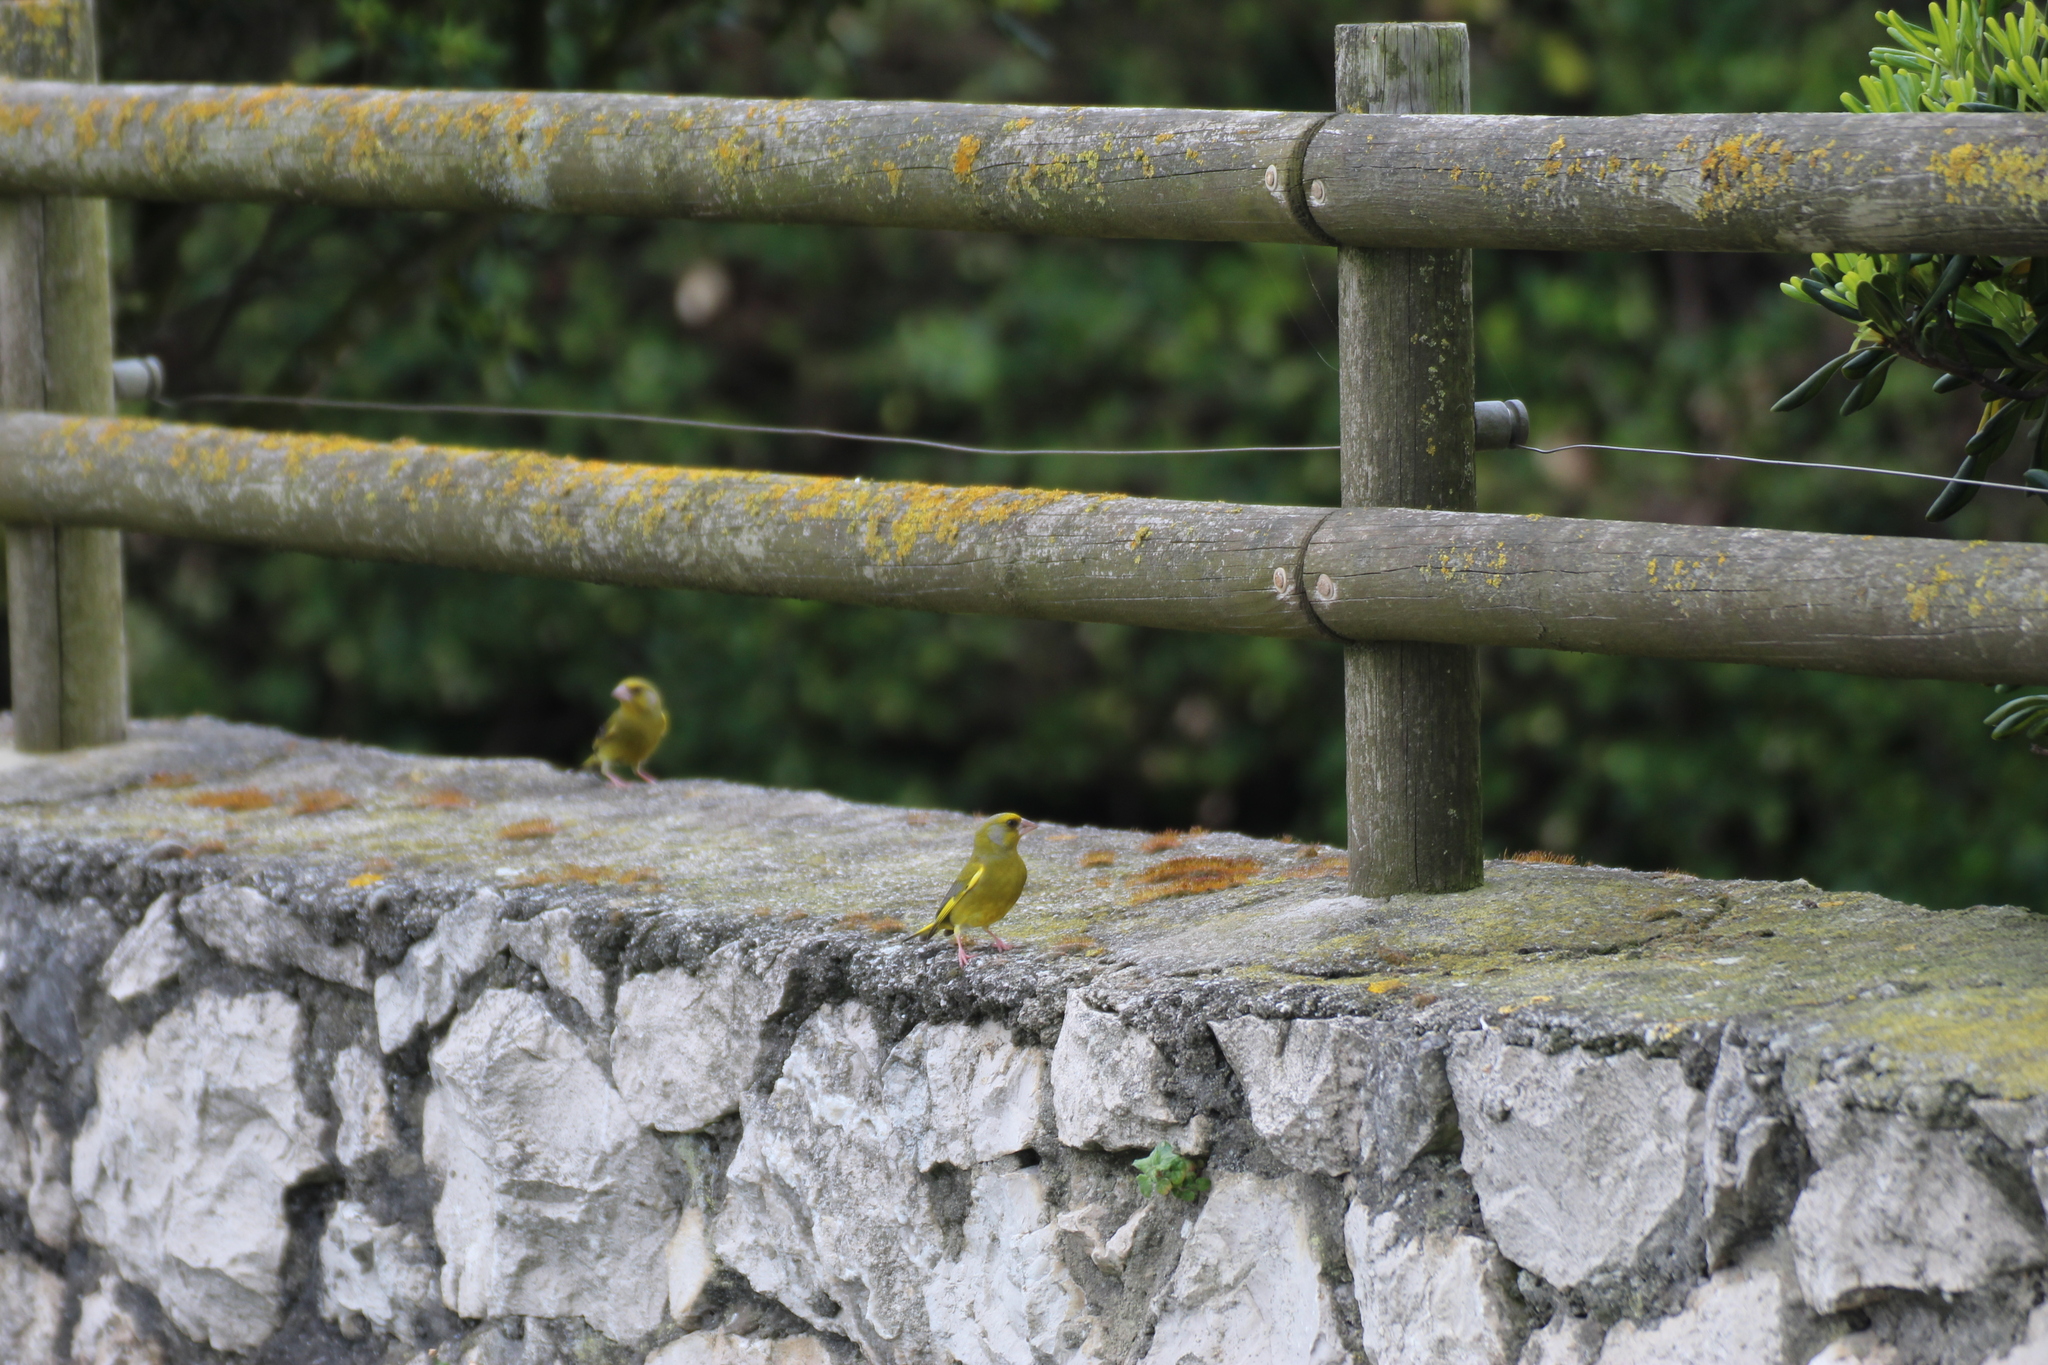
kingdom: Plantae
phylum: Tracheophyta
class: Liliopsida
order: Poales
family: Poaceae
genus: Chloris
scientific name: Chloris chloris
